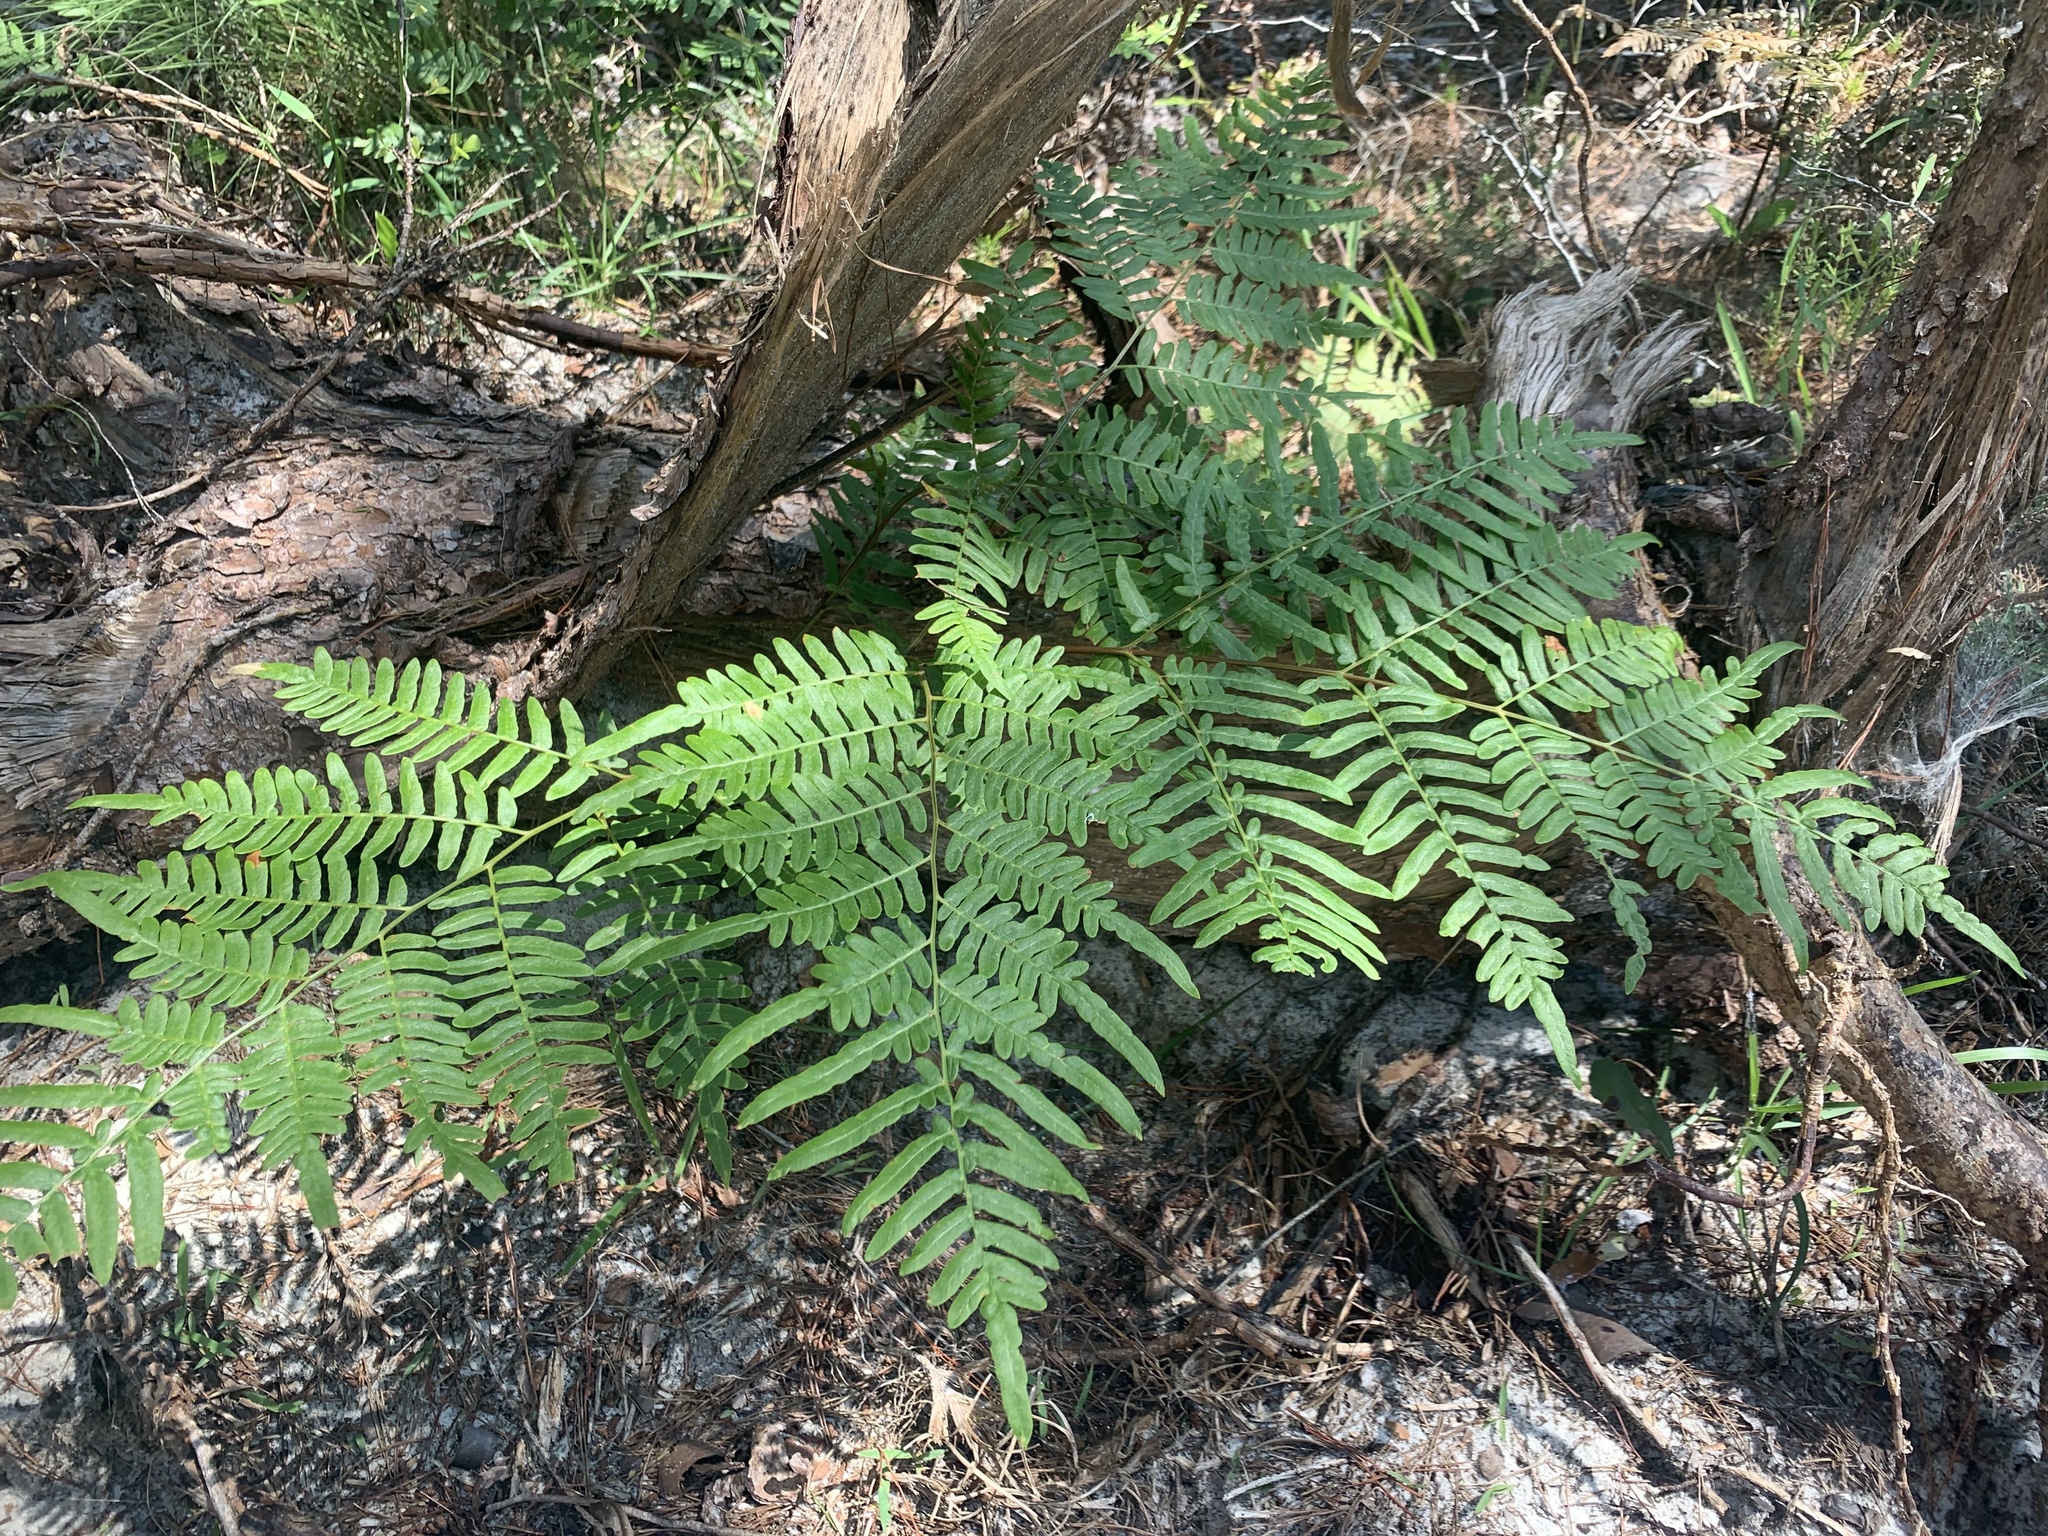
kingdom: Plantae
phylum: Tracheophyta
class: Polypodiopsida
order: Polypodiales
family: Dennstaedtiaceae
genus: Pteridium
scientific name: Pteridium
